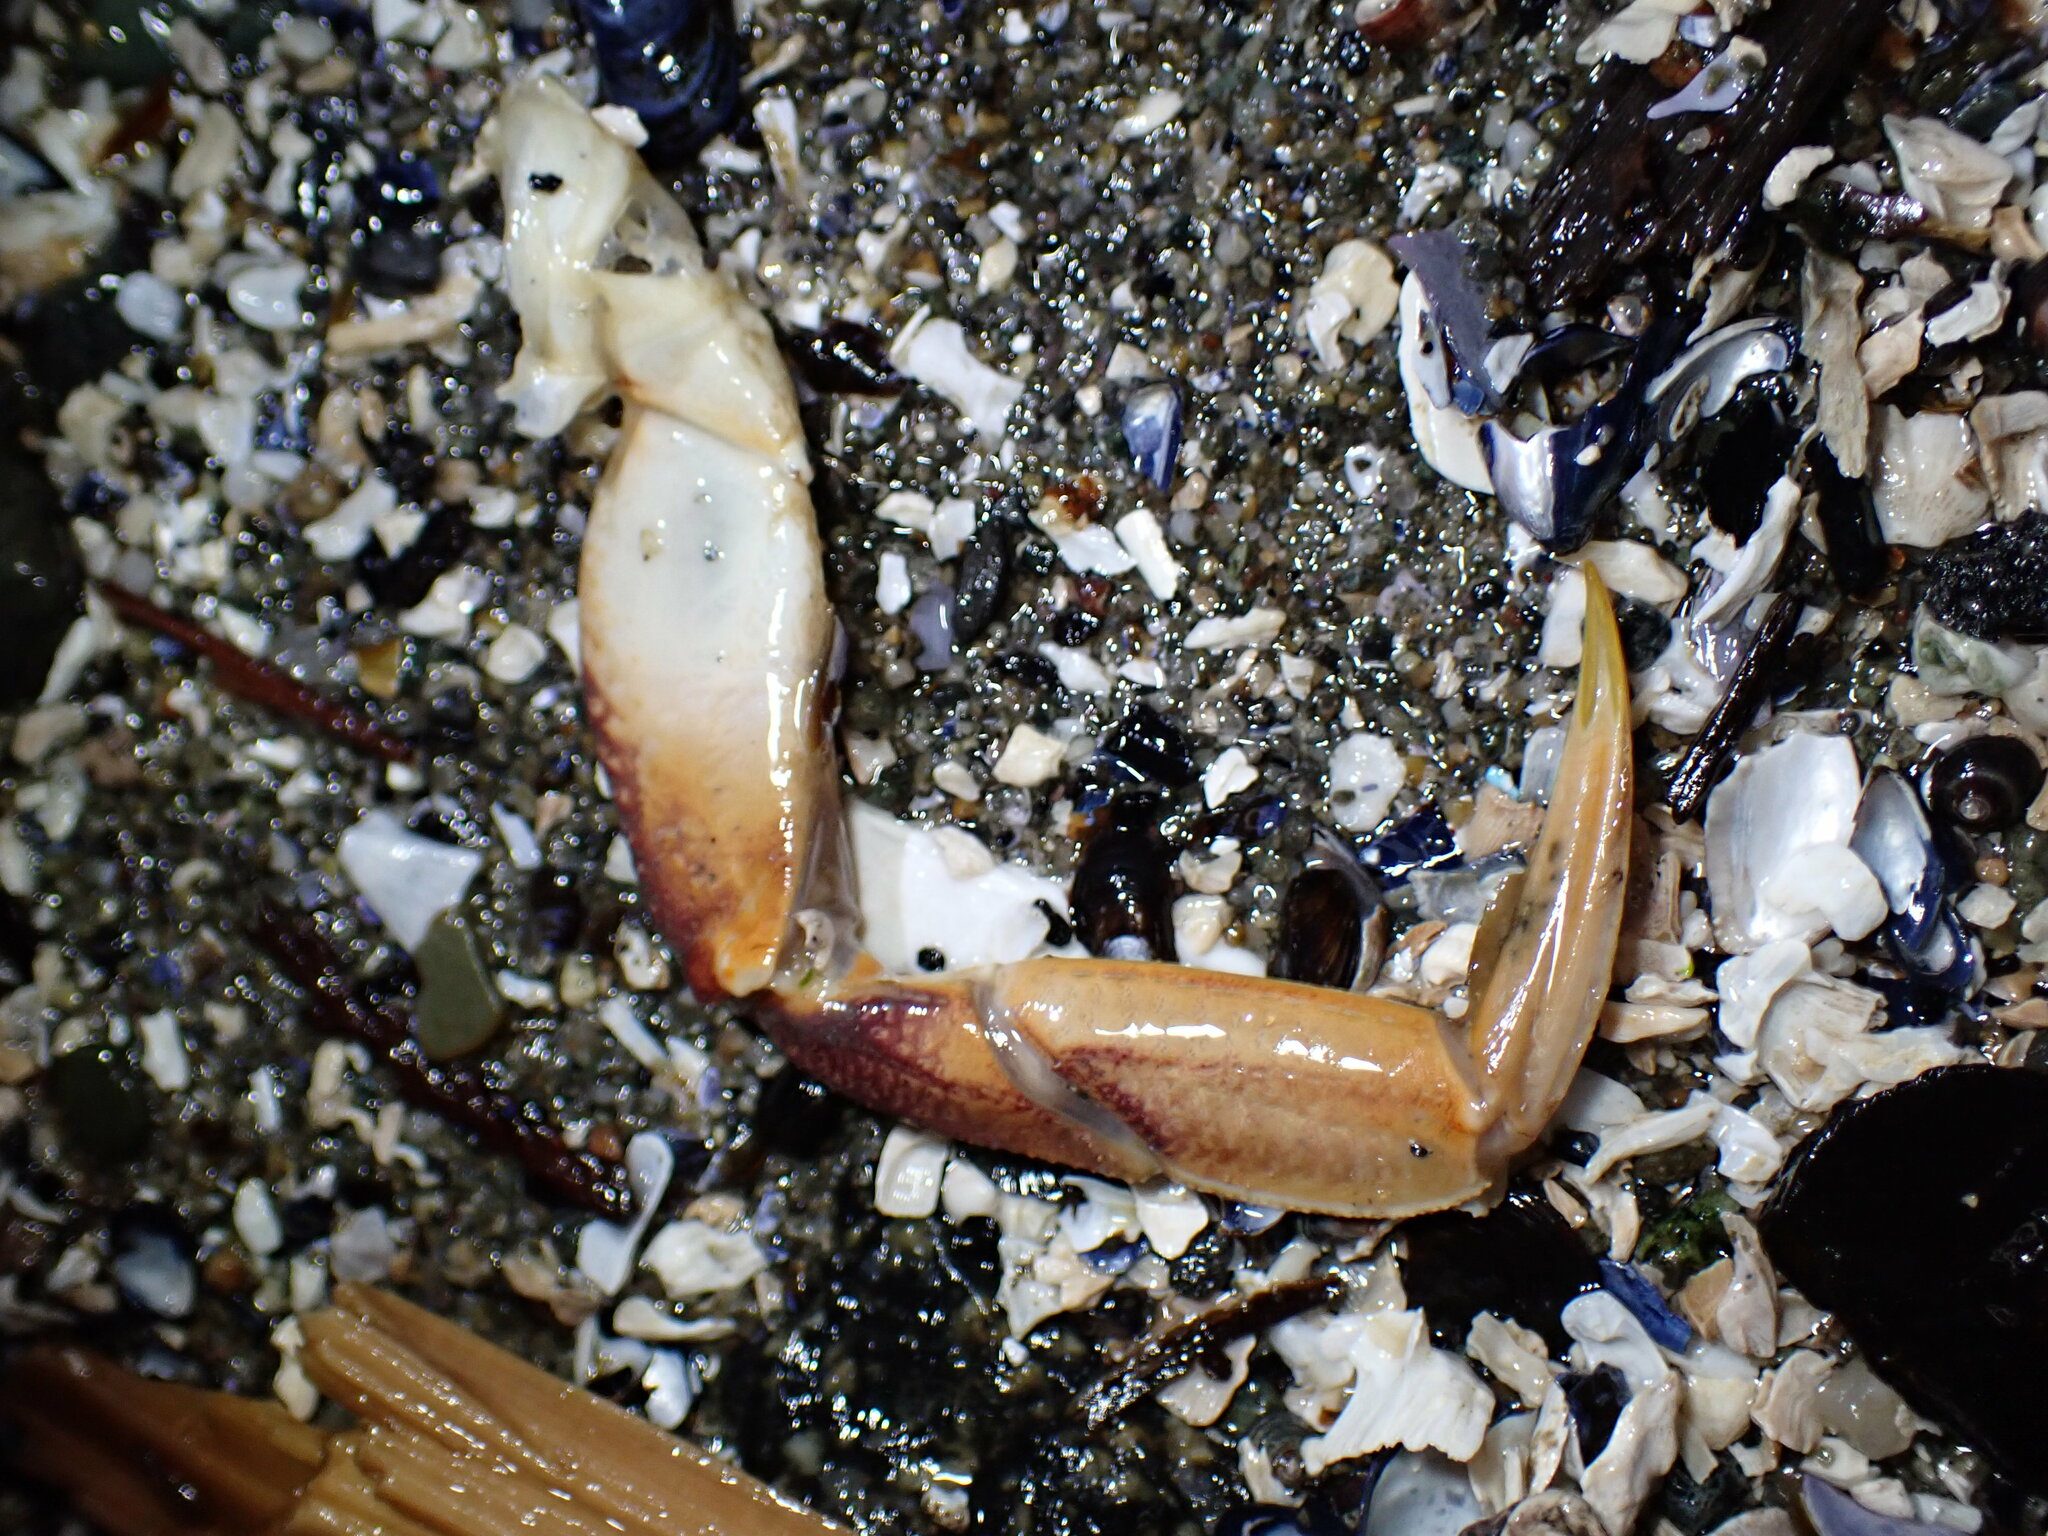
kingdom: Animalia
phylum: Arthropoda
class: Malacostraca
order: Decapoda
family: Cancridae
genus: Metacarcinus
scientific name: Metacarcinus magister
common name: Californian crab
